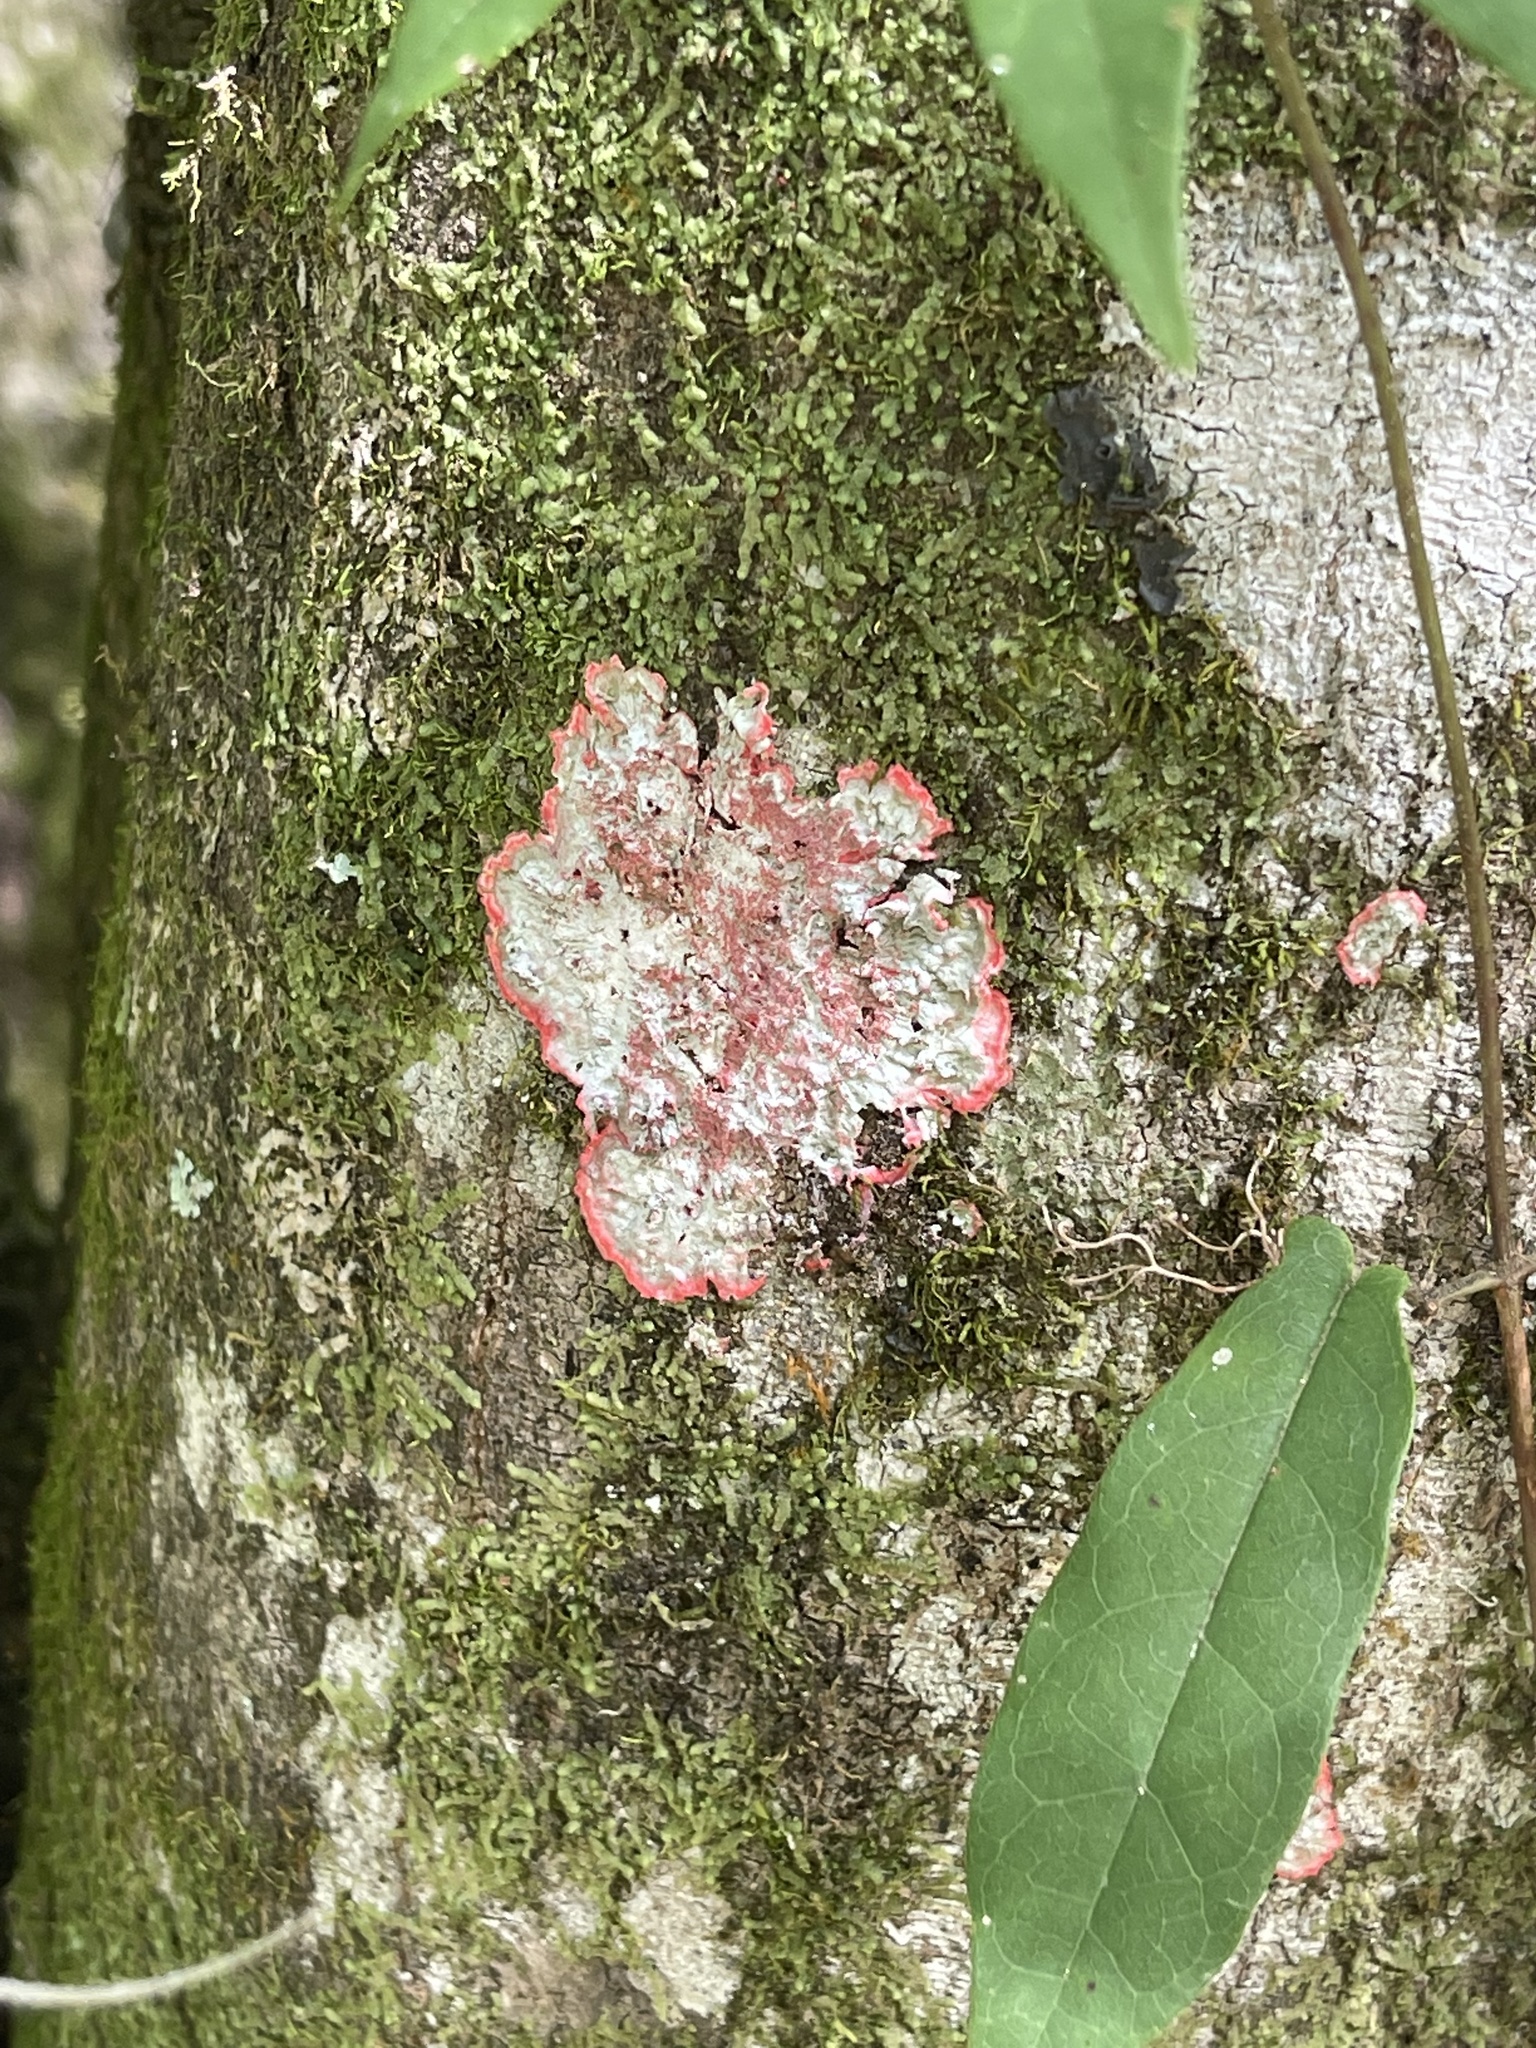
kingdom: Fungi
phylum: Ascomycota
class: Arthoniomycetes
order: Arthoniales
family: Arthoniaceae
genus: Herpothallon
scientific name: Herpothallon rubrocinctum
